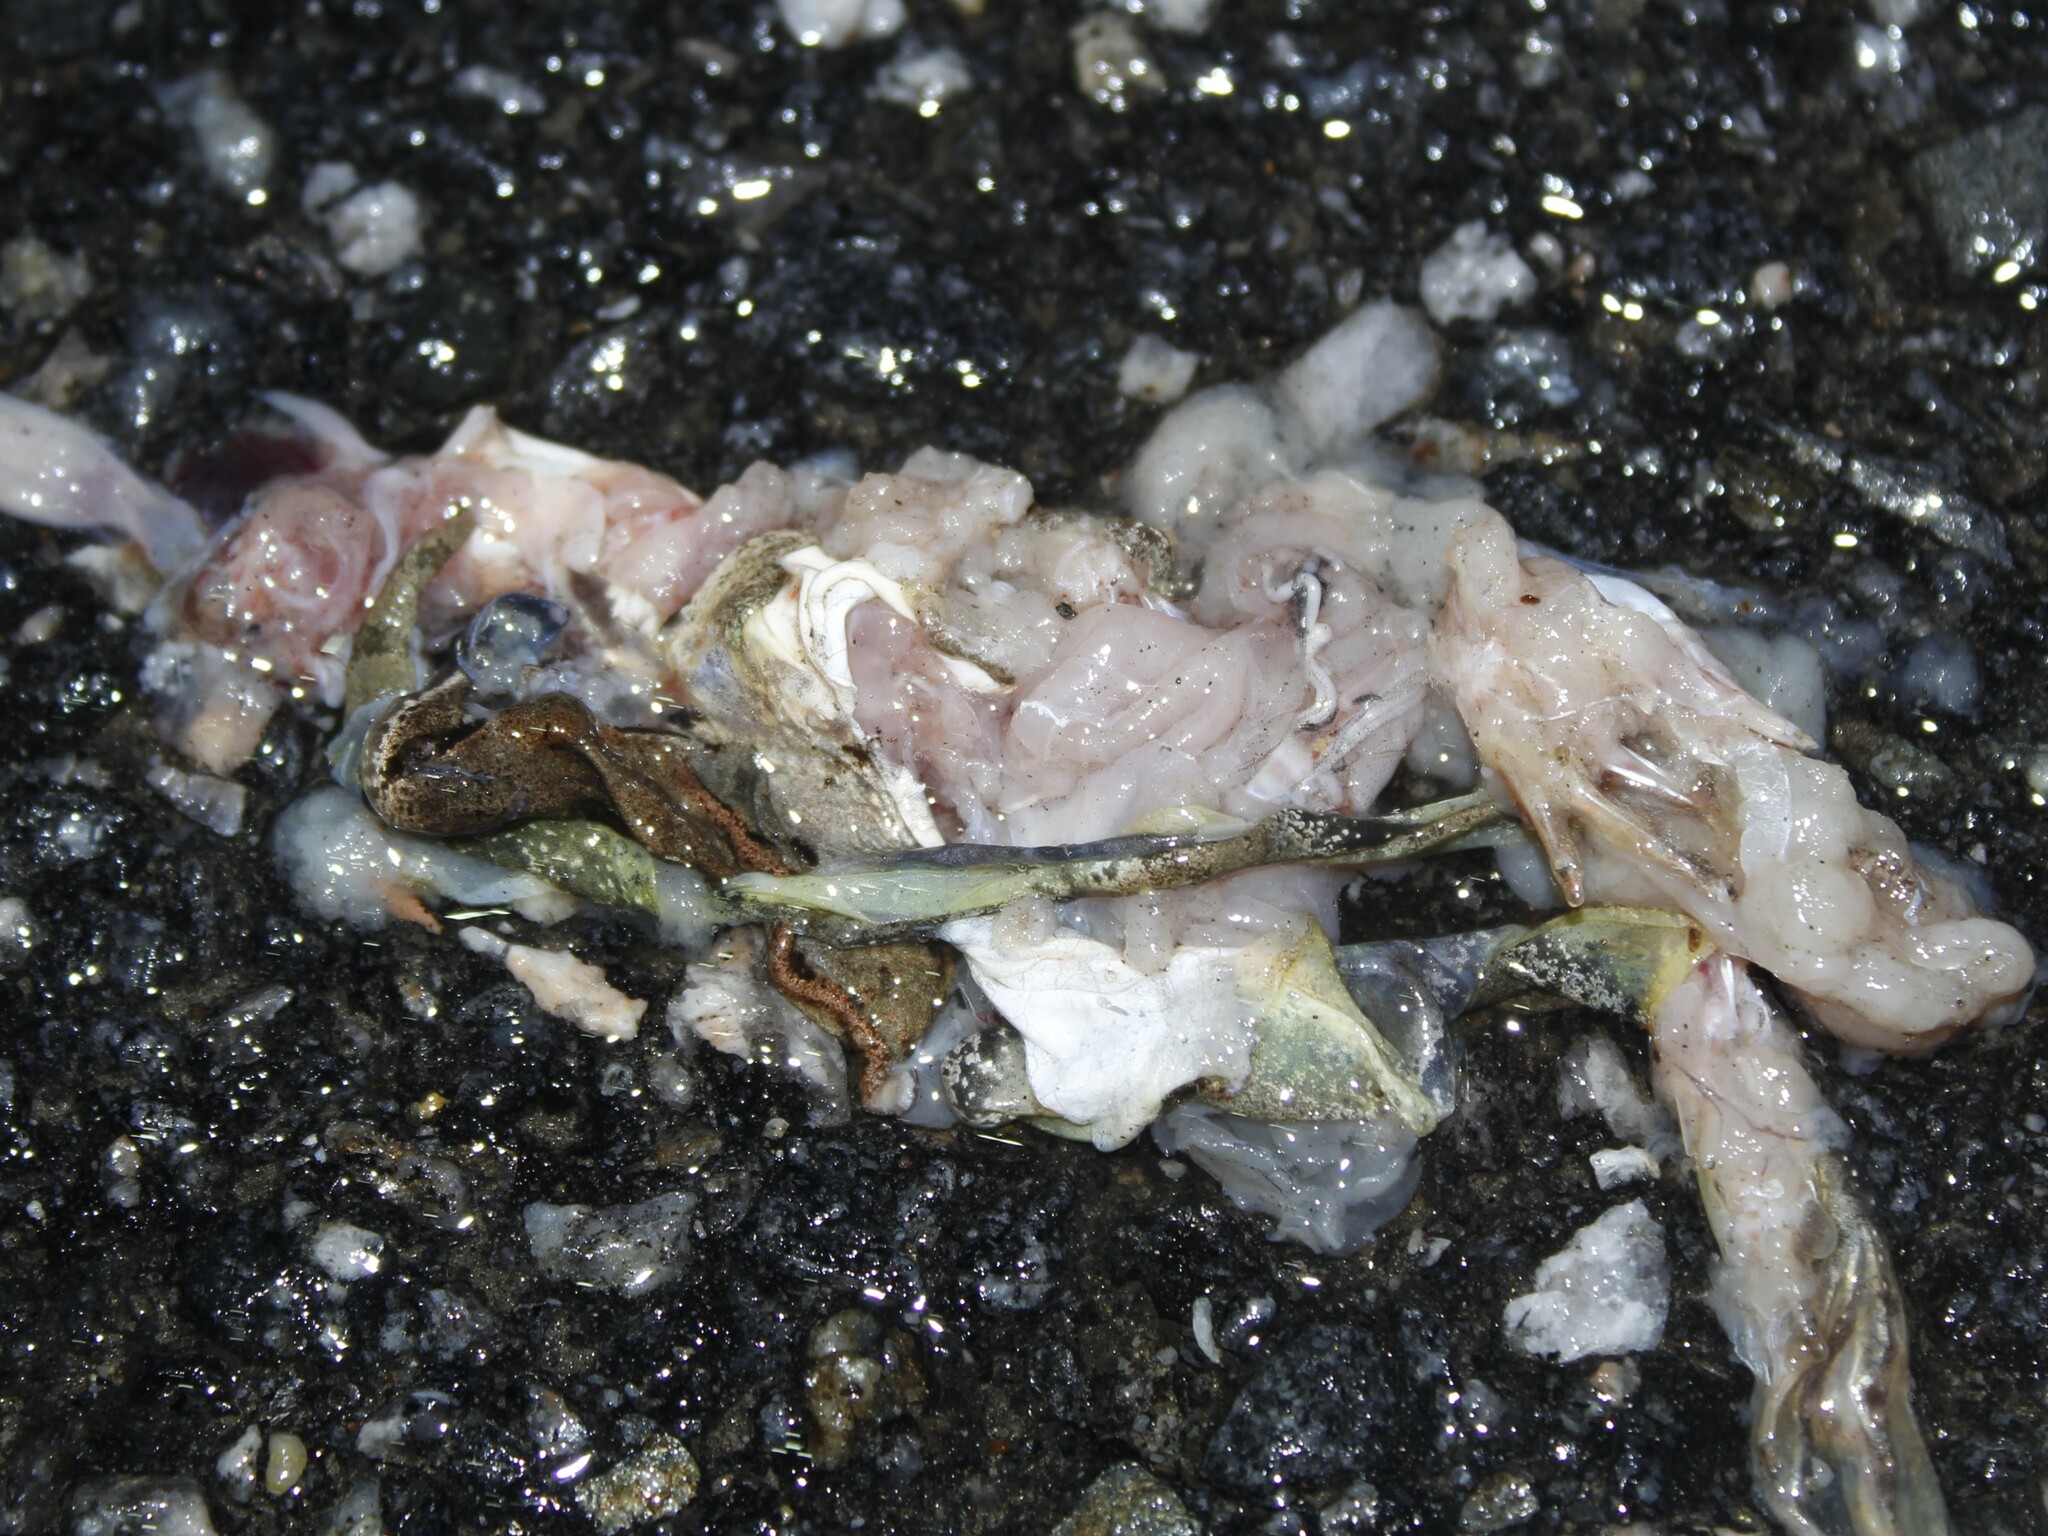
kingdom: Animalia
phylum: Chordata
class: Amphibia
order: Anura
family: Ranidae
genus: Lithobates
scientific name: Lithobates sylvaticus
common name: Wood frog
